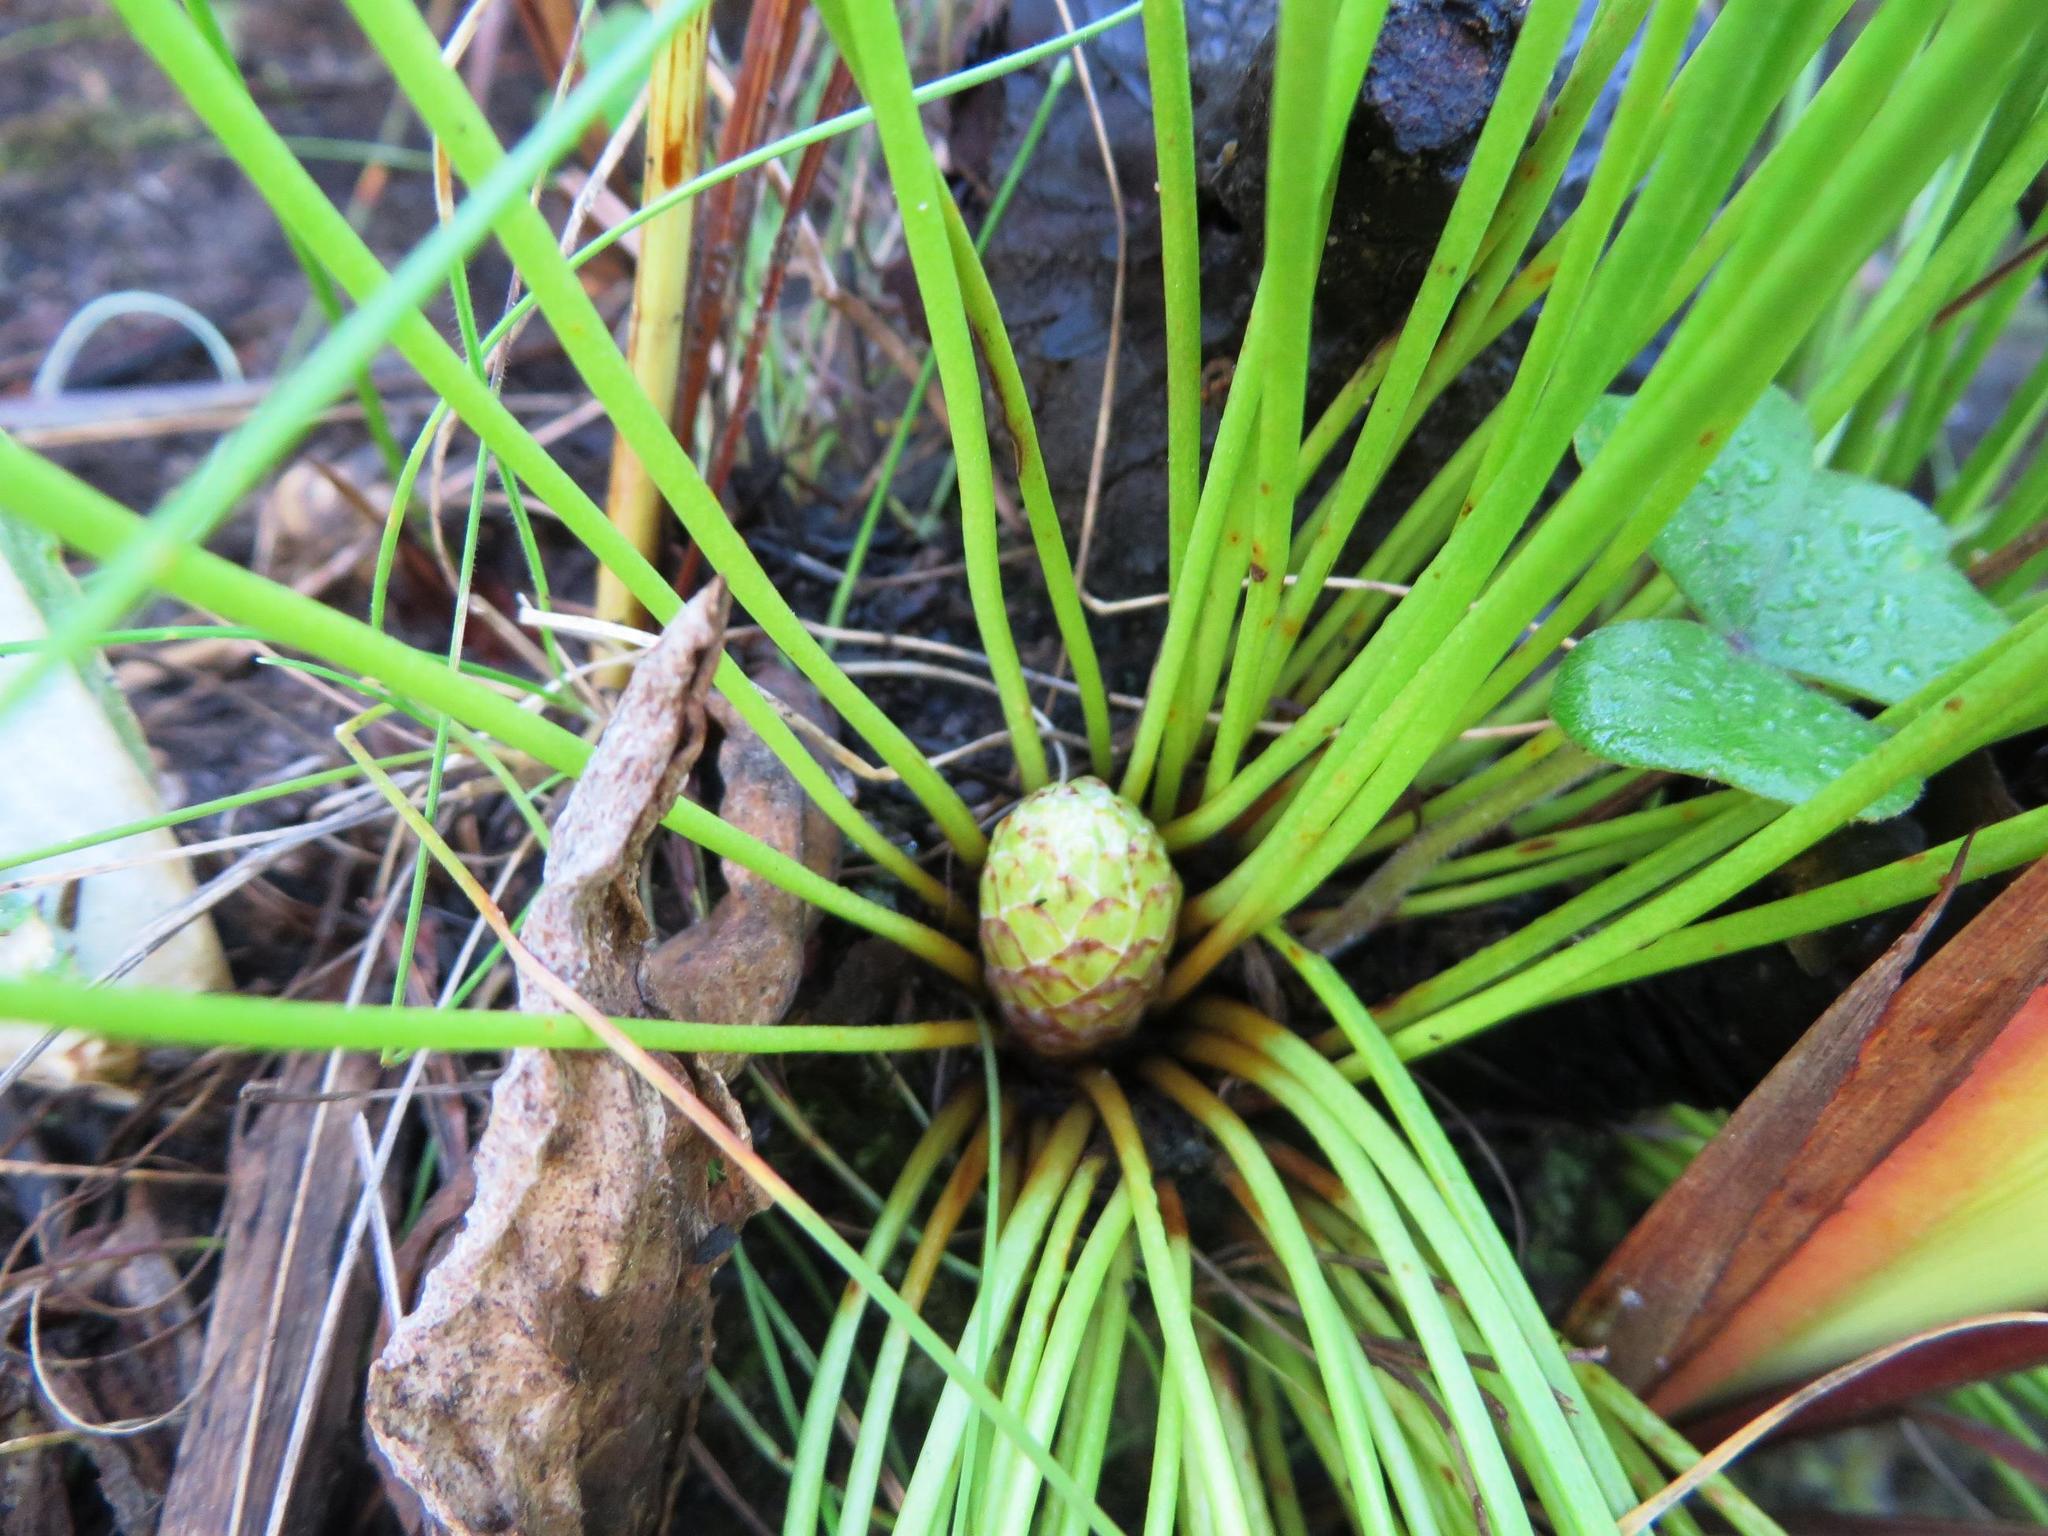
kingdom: Plantae
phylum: Tracheophyta
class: Magnoliopsida
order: Proteales
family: Proteaceae
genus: Protea
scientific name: Protea lorea
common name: Thong-leaf sugarbush
